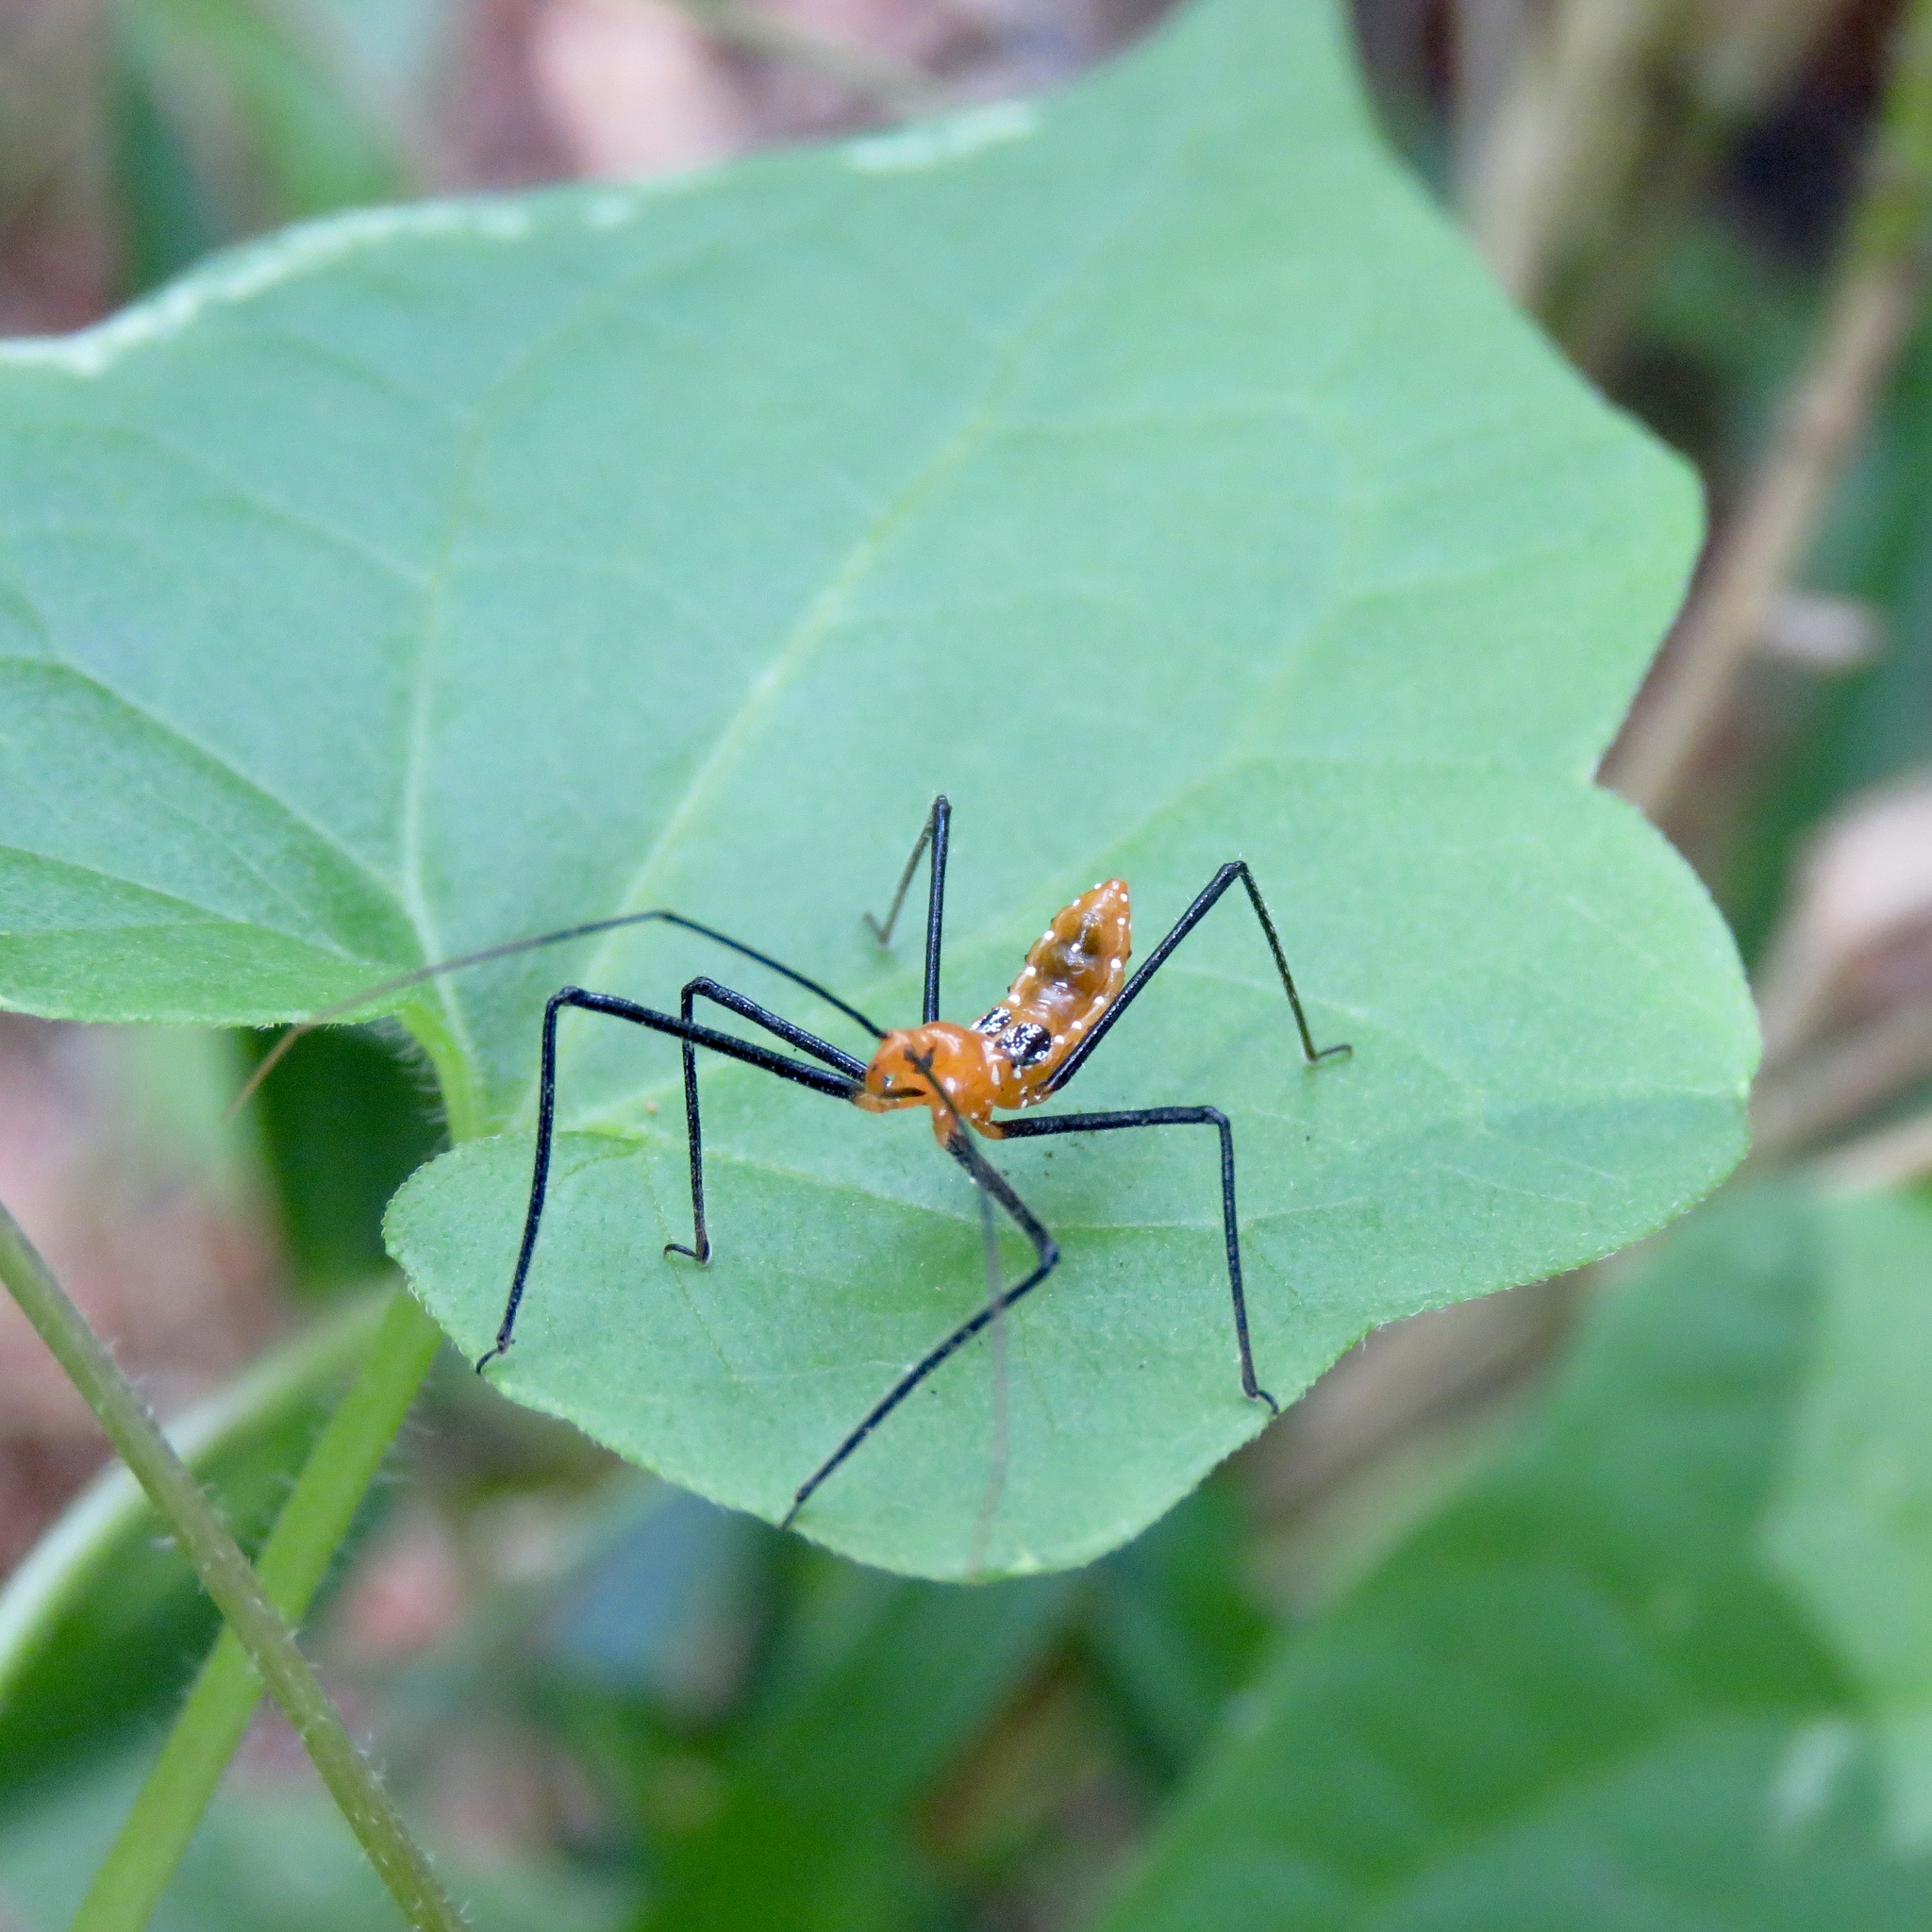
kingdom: Animalia
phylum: Arthropoda
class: Insecta
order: Hemiptera
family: Reduviidae
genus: Zelus
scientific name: Zelus longipes
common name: Milkweed assassin bug
